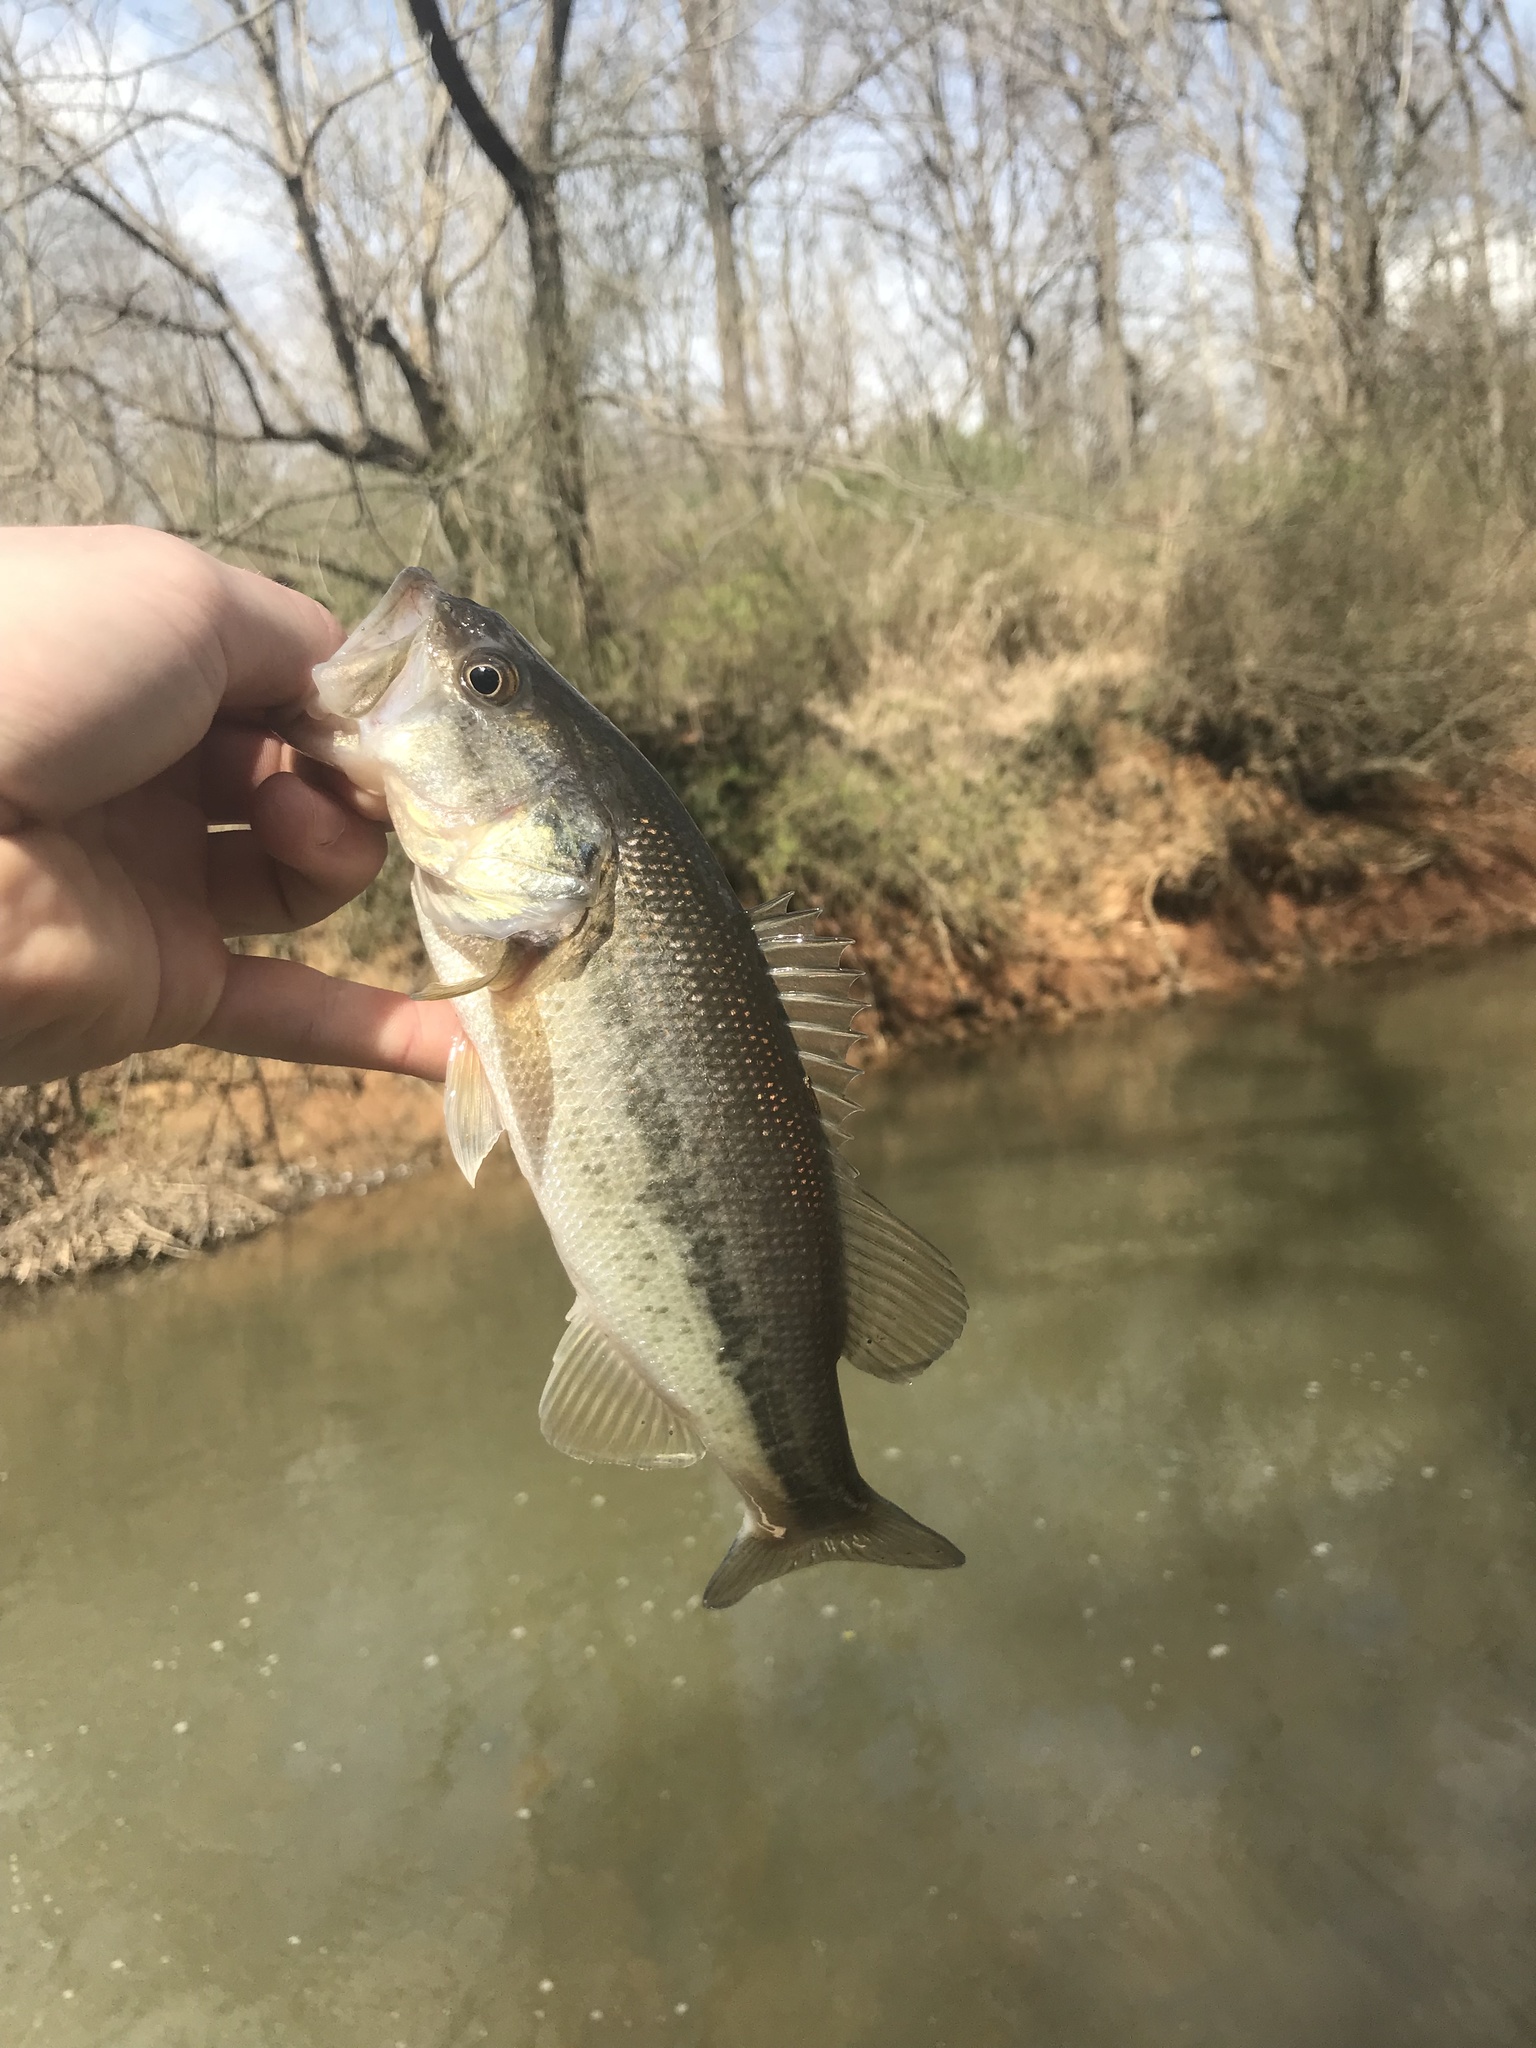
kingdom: Animalia
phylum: Chordata
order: Perciformes
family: Centrarchidae
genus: Micropterus
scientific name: Micropterus salmoides
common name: Largemouth bass
